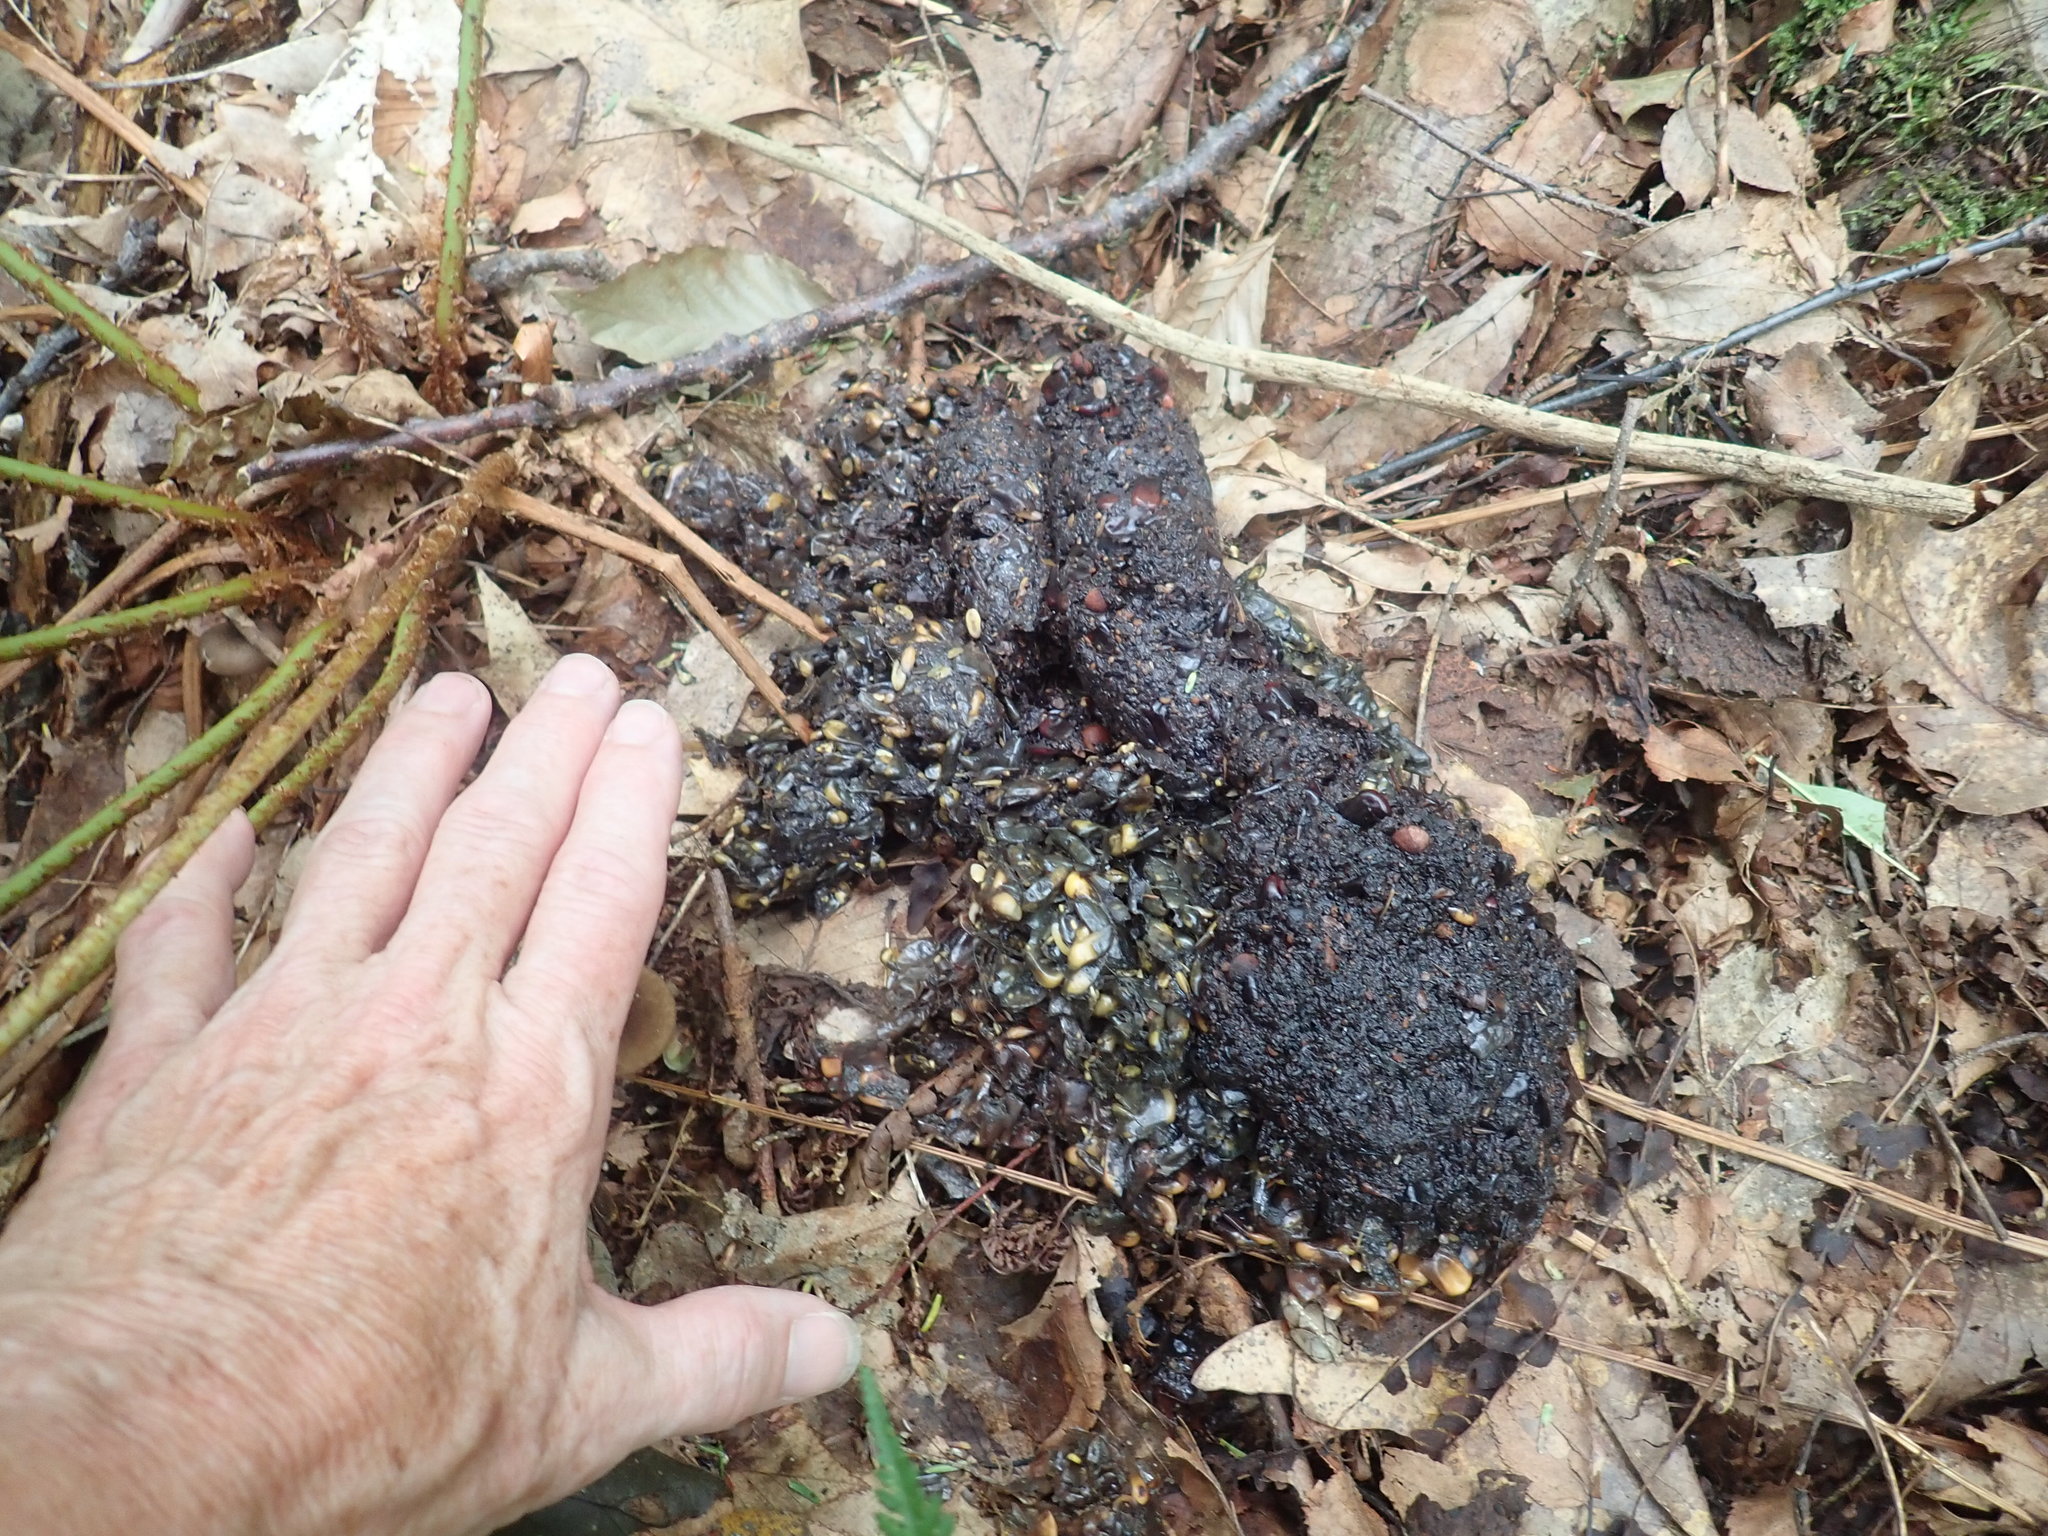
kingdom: Animalia
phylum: Chordata
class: Mammalia
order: Carnivora
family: Ursidae
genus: Ursus
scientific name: Ursus americanus
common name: American black bear
